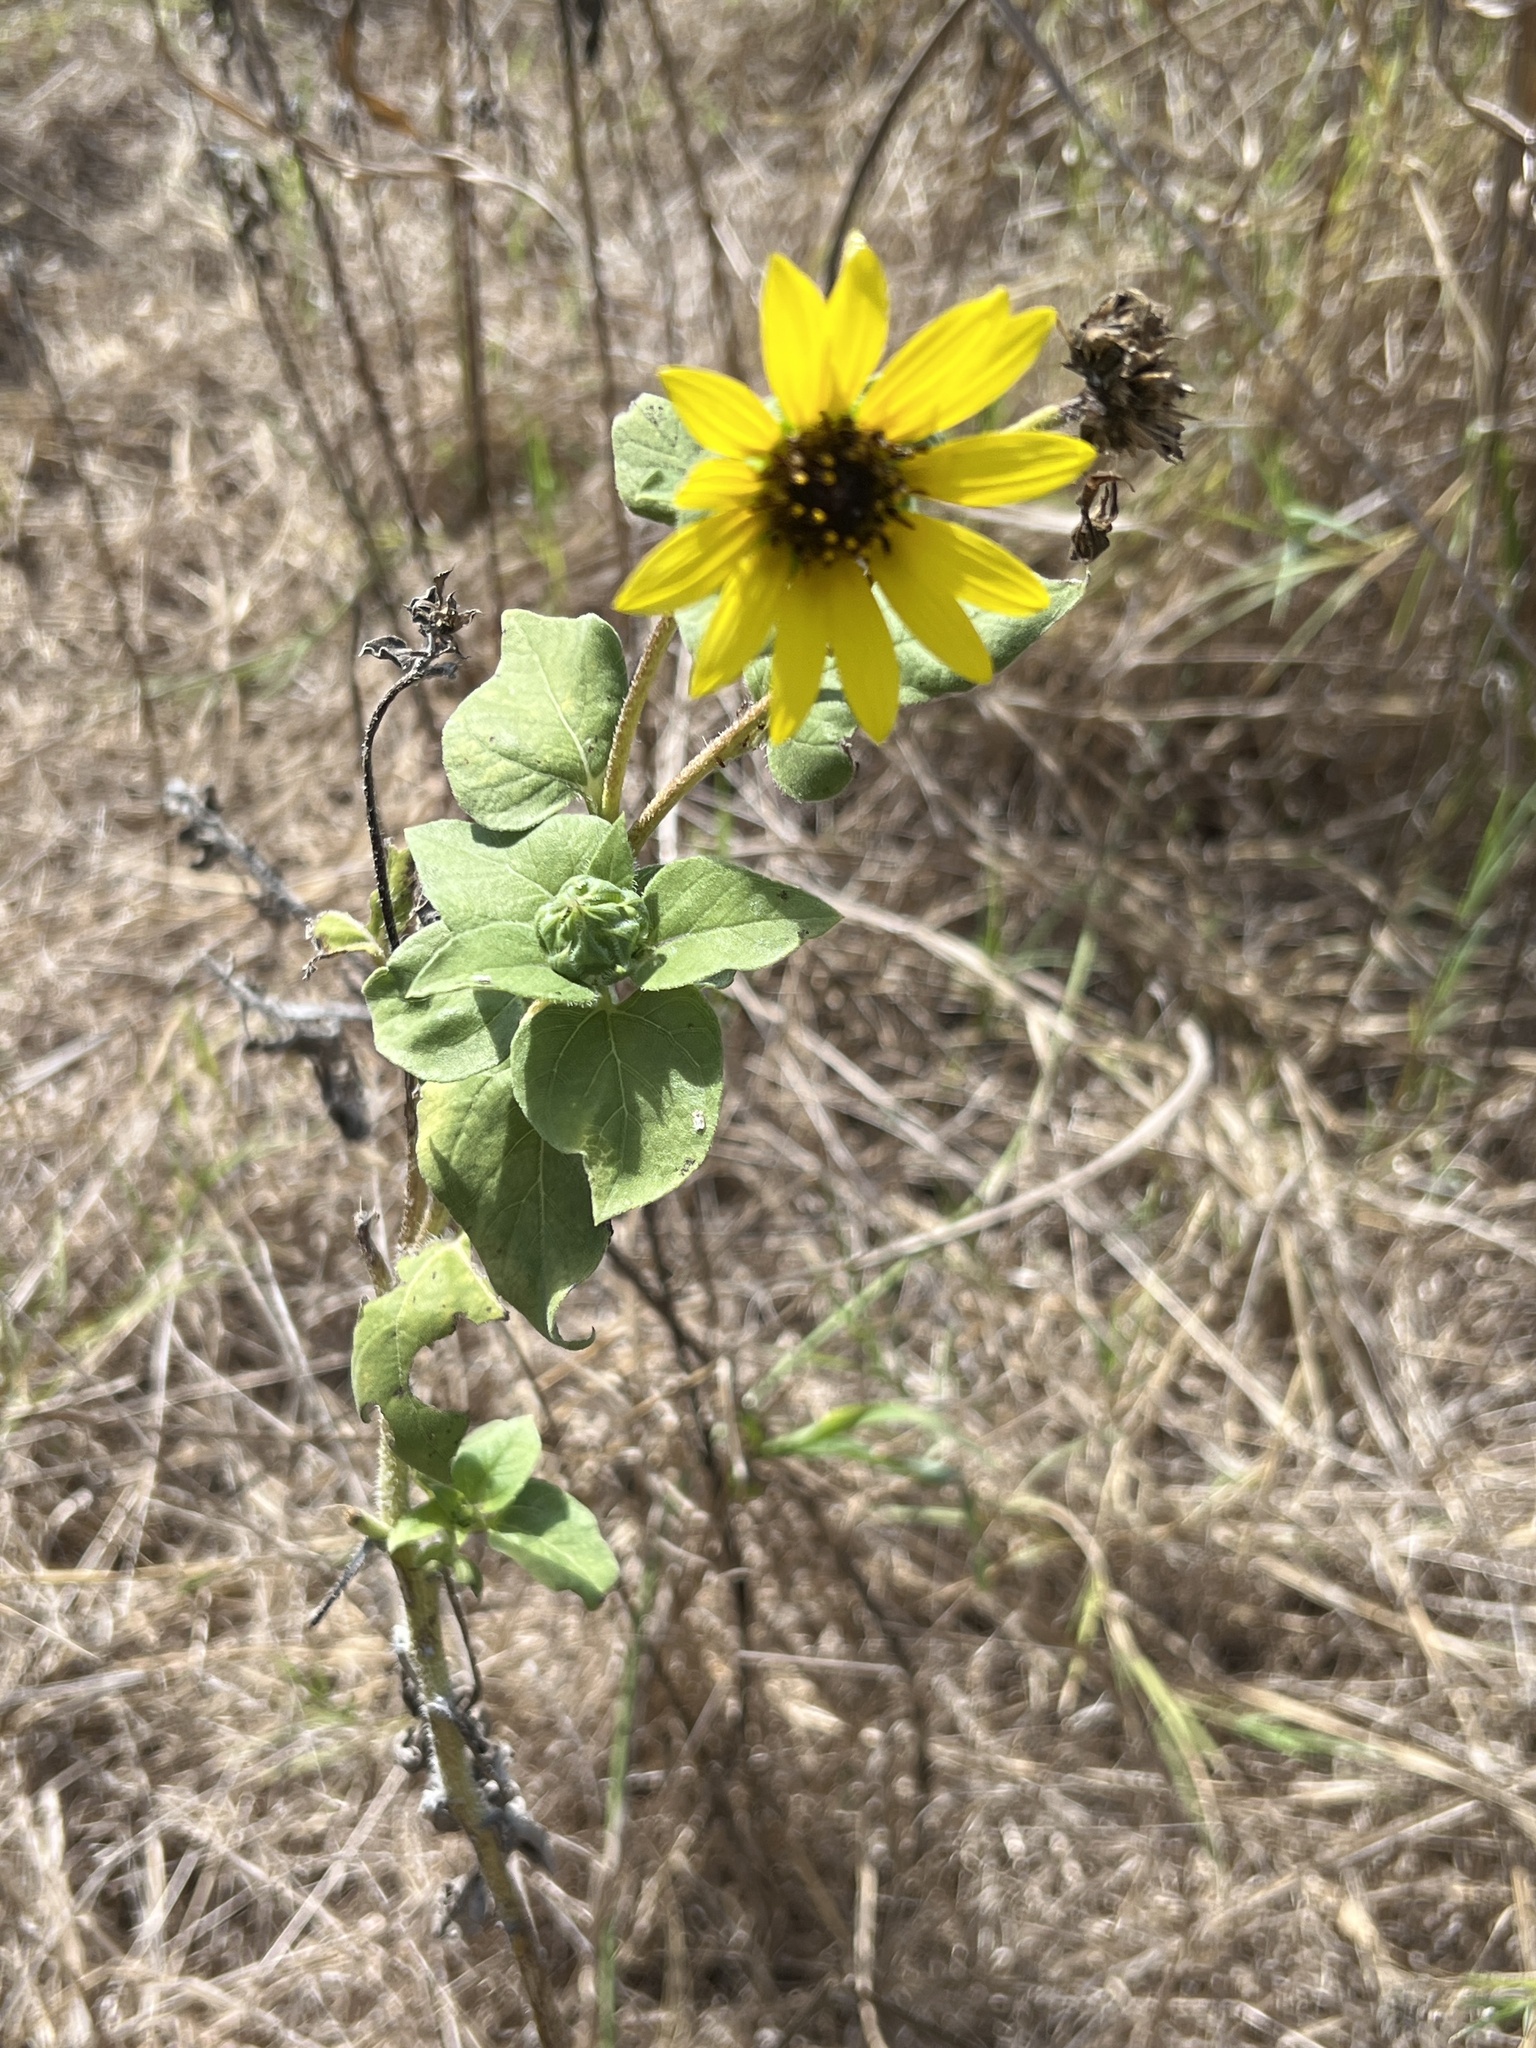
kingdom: Plantae
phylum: Tracheophyta
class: Magnoliopsida
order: Asterales
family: Asteraceae
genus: Helianthus
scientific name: Helianthus annuus
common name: Sunflower
